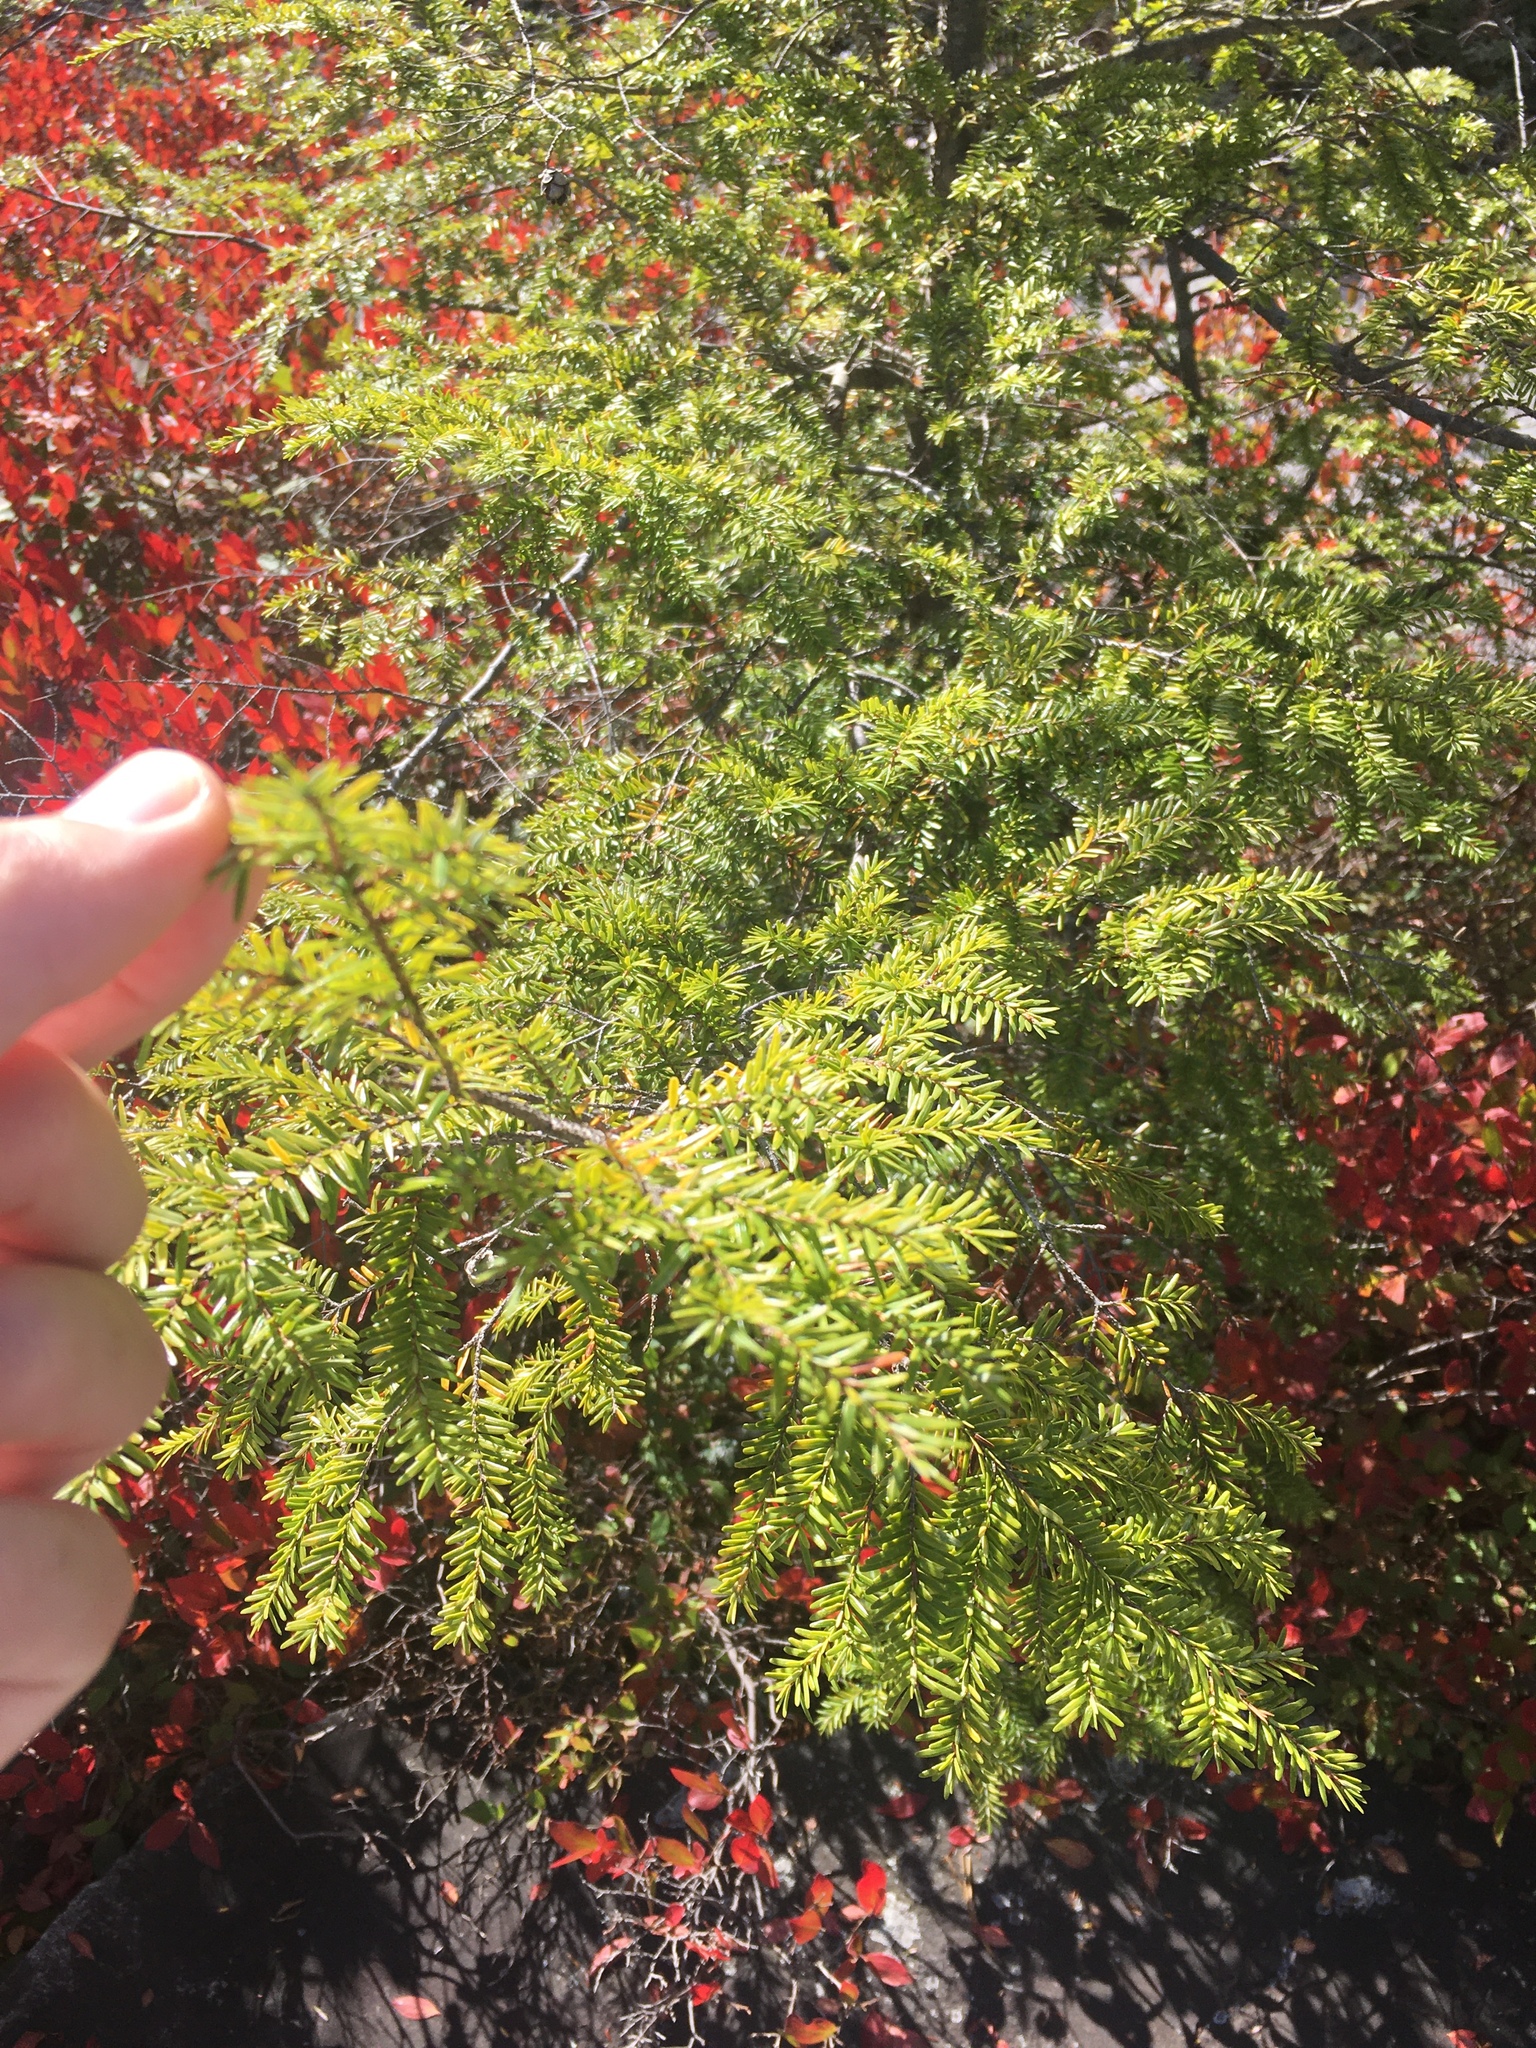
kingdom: Plantae
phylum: Tracheophyta
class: Pinopsida
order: Pinales
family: Pinaceae
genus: Tsuga
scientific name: Tsuga canadensis
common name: Eastern hemlock
